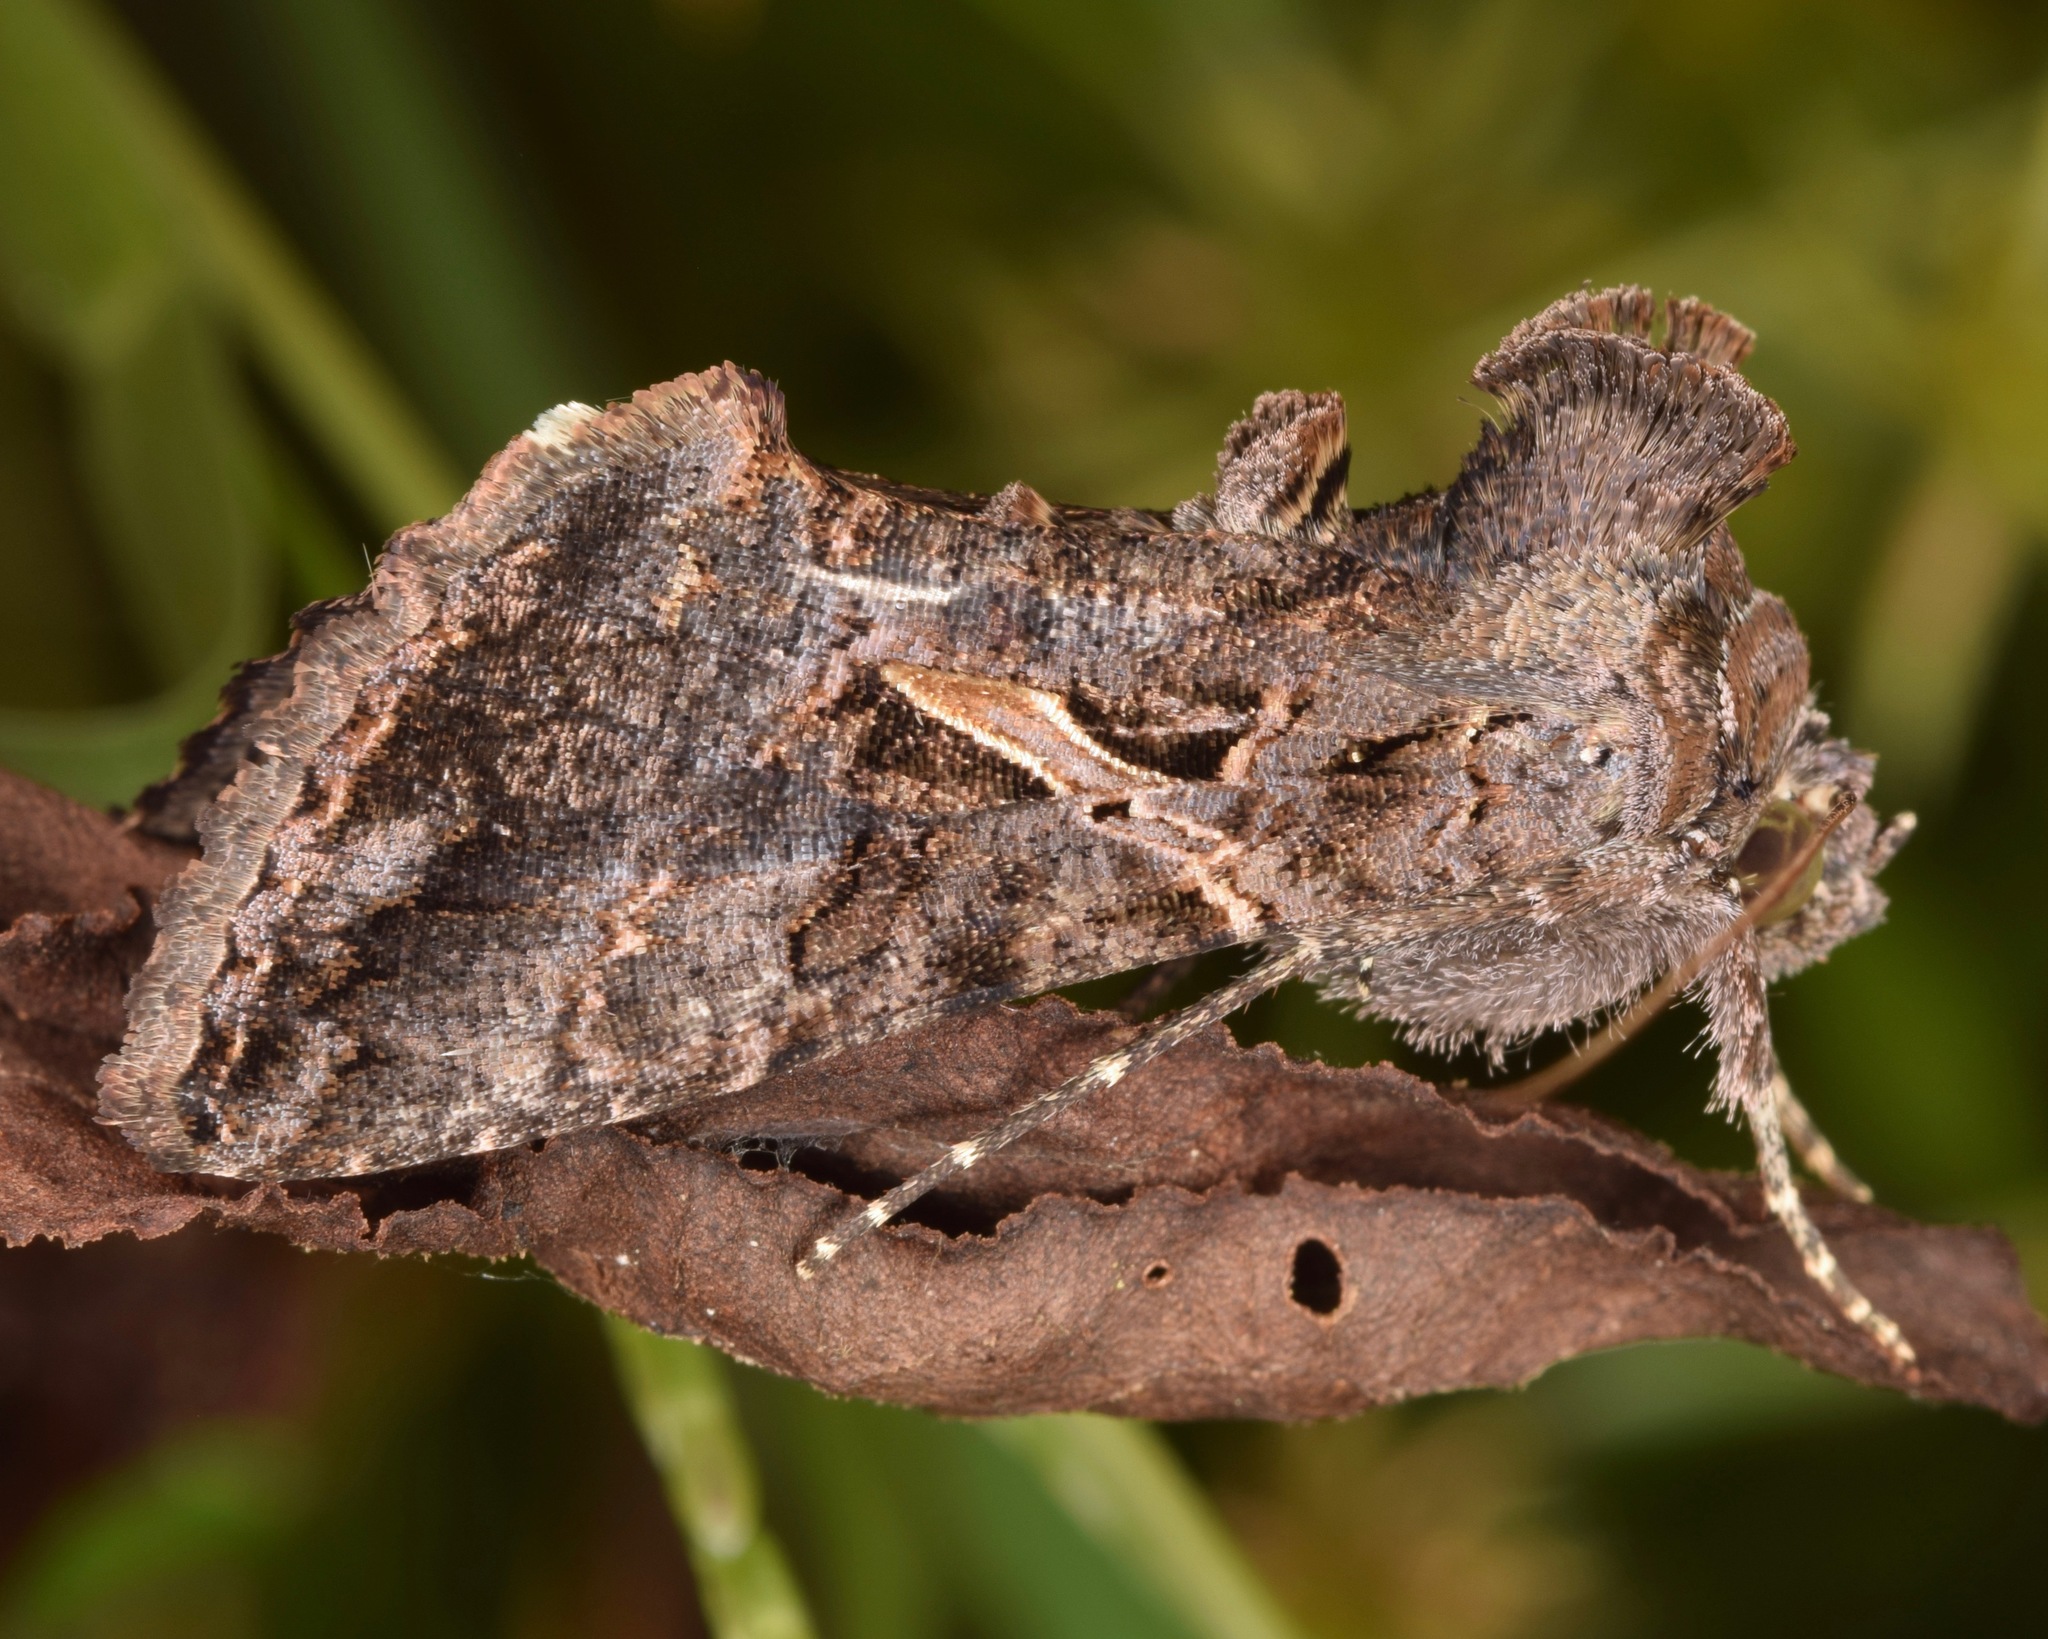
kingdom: Animalia
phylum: Arthropoda
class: Insecta
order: Lepidoptera
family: Noctuidae
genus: Ctenoplusia
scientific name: Ctenoplusia oxygramma
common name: Sharp-stigma looper moth
